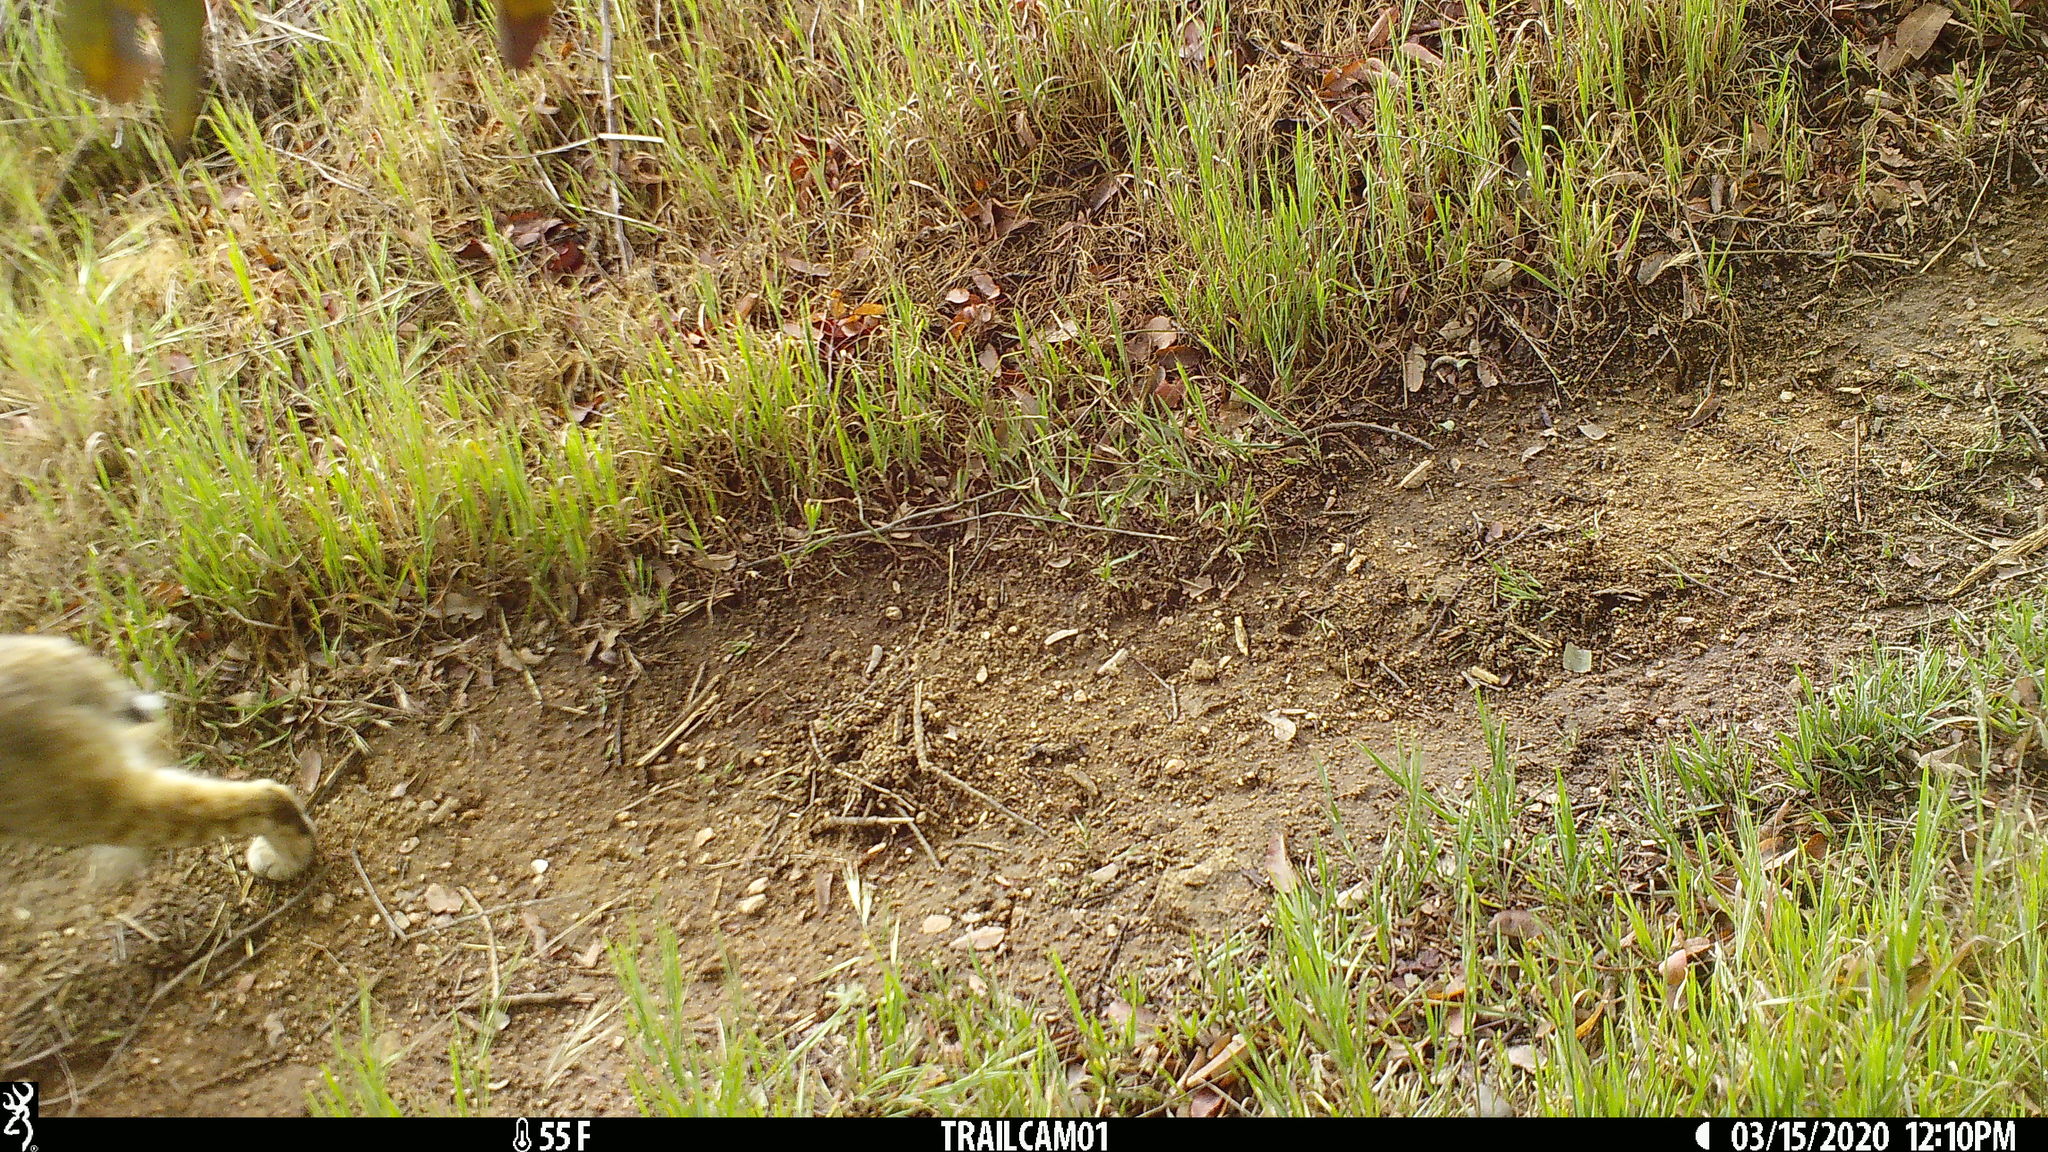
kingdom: Animalia
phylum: Chordata
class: Mammalia
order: Carnivora
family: Felidae
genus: Lynx
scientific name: Lynx rufus
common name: Bobcat
